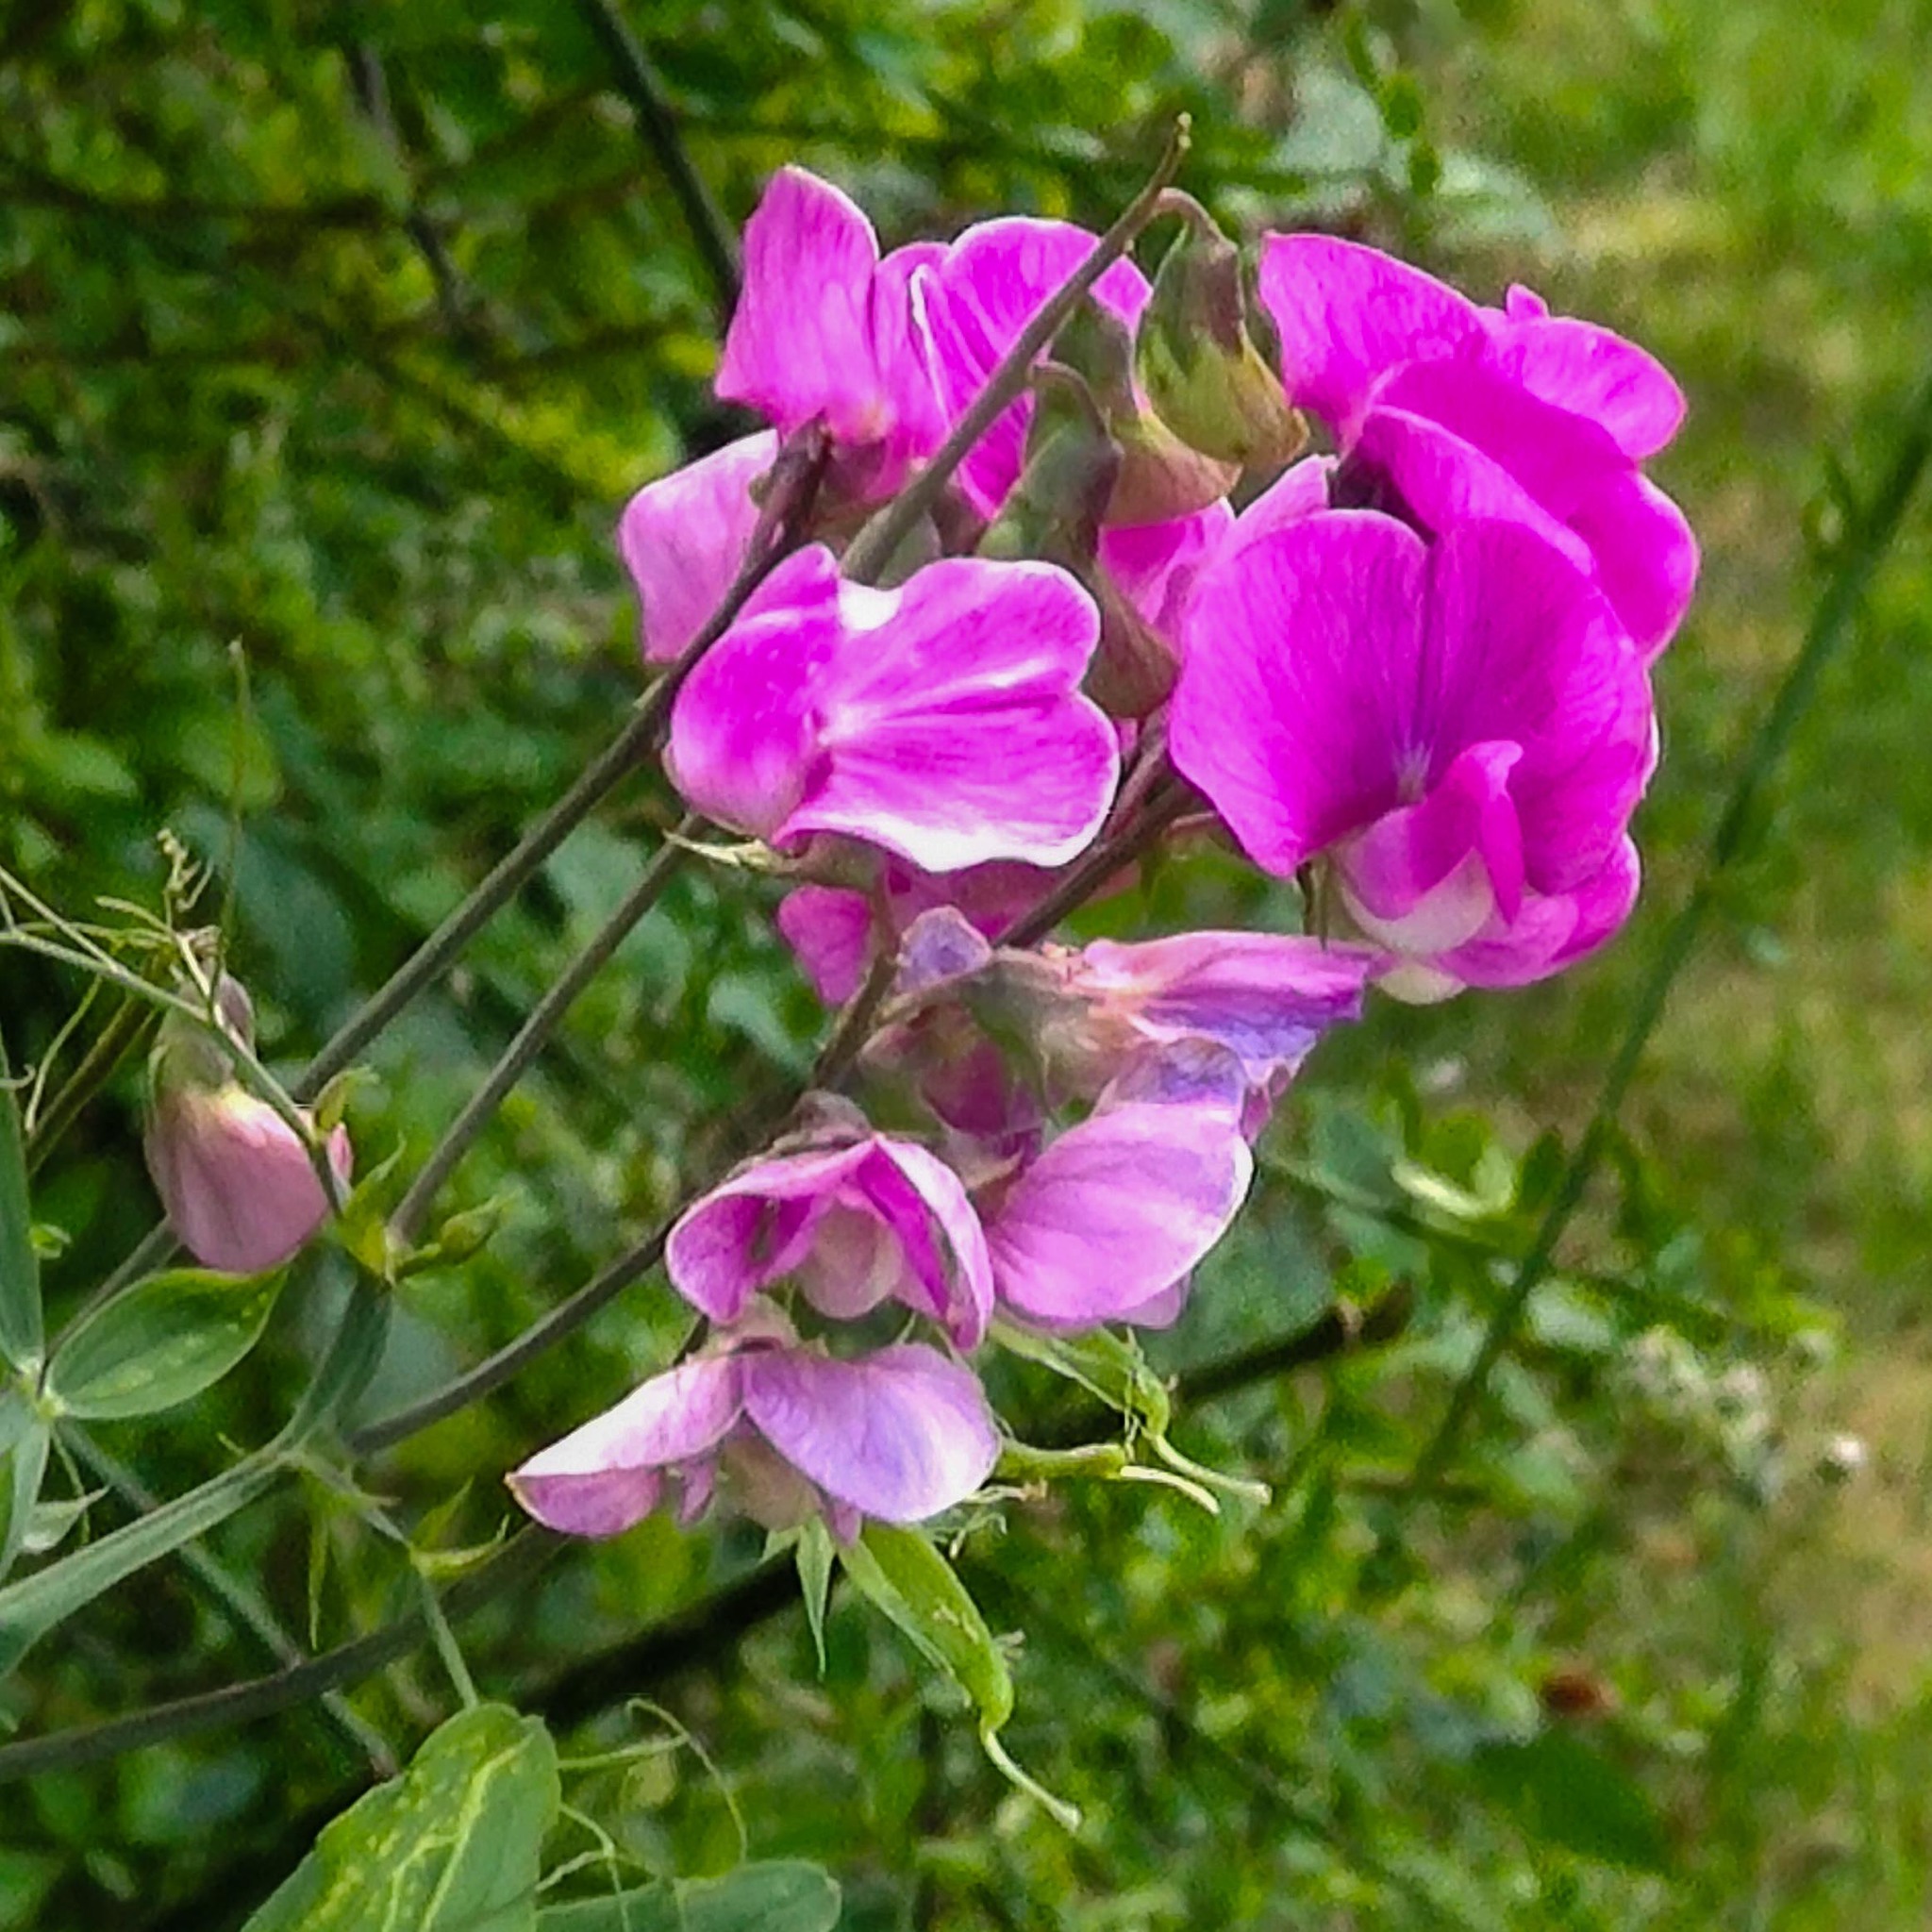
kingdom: Plantae
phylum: Tracheophyta
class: Magnoliopsida
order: Fabales
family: Fabaceae
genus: Lathyrus
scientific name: Lathyrus latifolius
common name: Perennial pea
